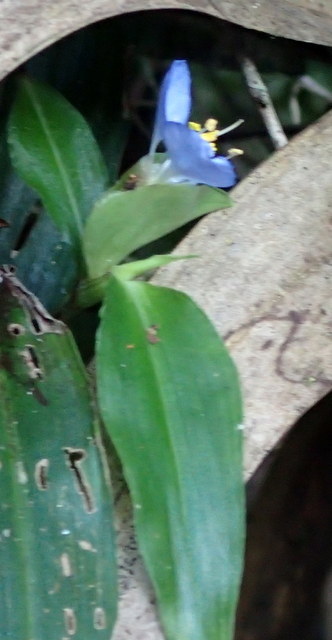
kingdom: Plantae
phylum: Tracheophyta
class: Liliopsida
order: Commelinales
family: Commelinaceae
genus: Commelina
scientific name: Commelina virginica
